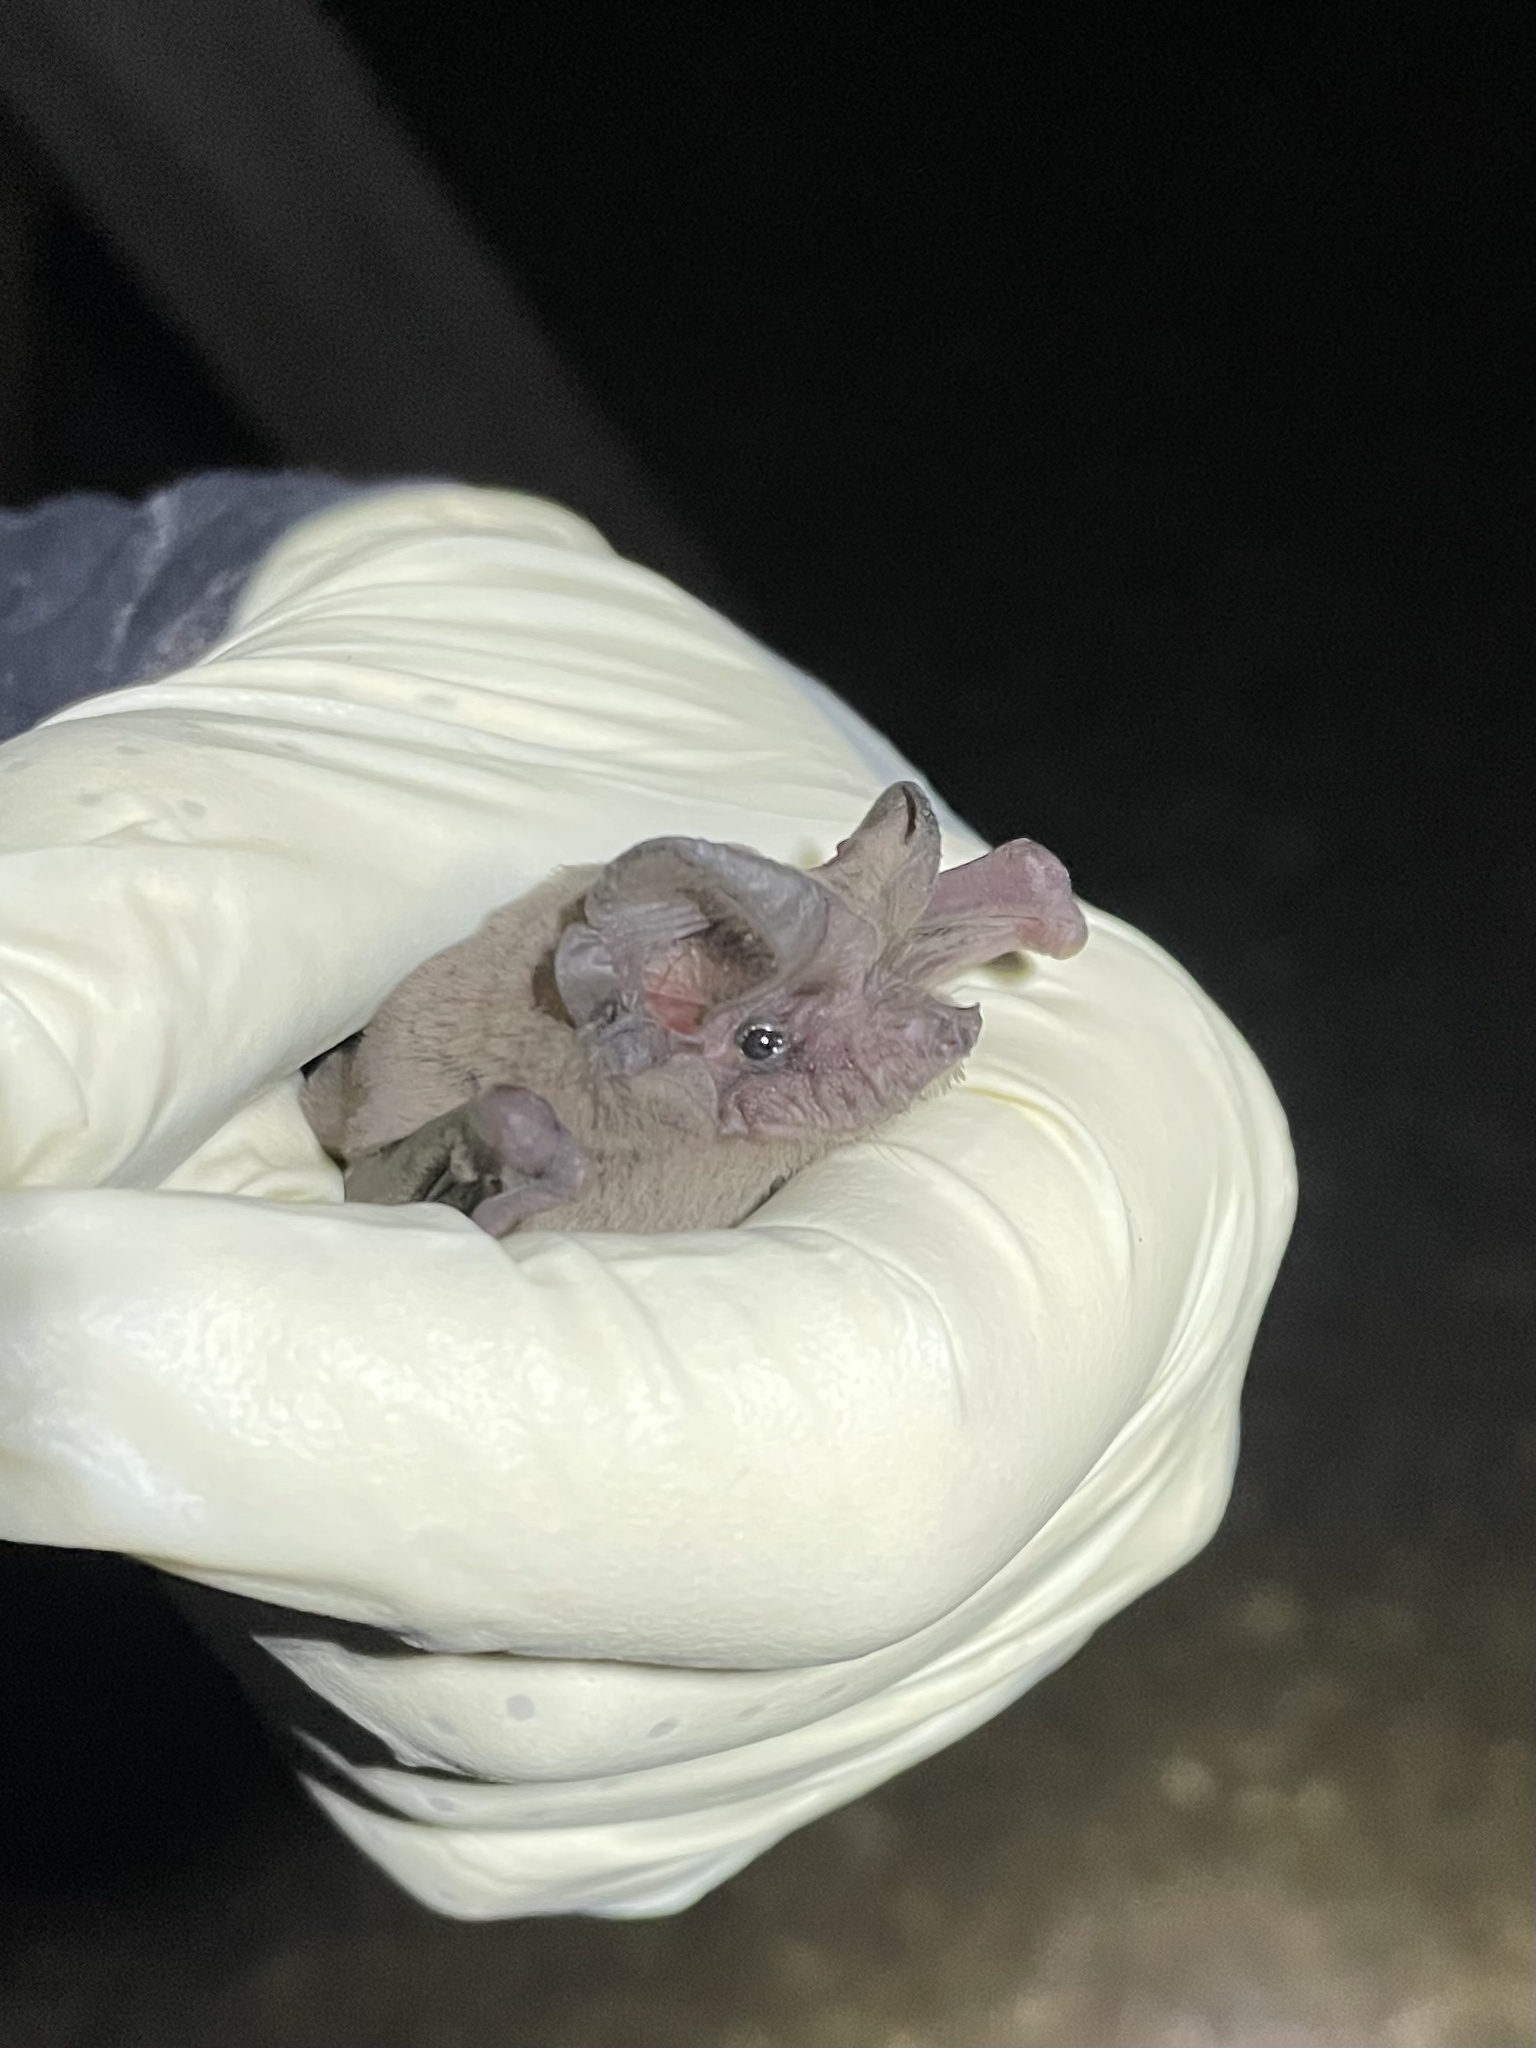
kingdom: Animalia
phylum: Chordata
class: Mammalia
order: Chiroptera
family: Molossidae
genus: Tadarida
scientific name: Tadarida brasiliensis
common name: Mexican free-tailed bat
